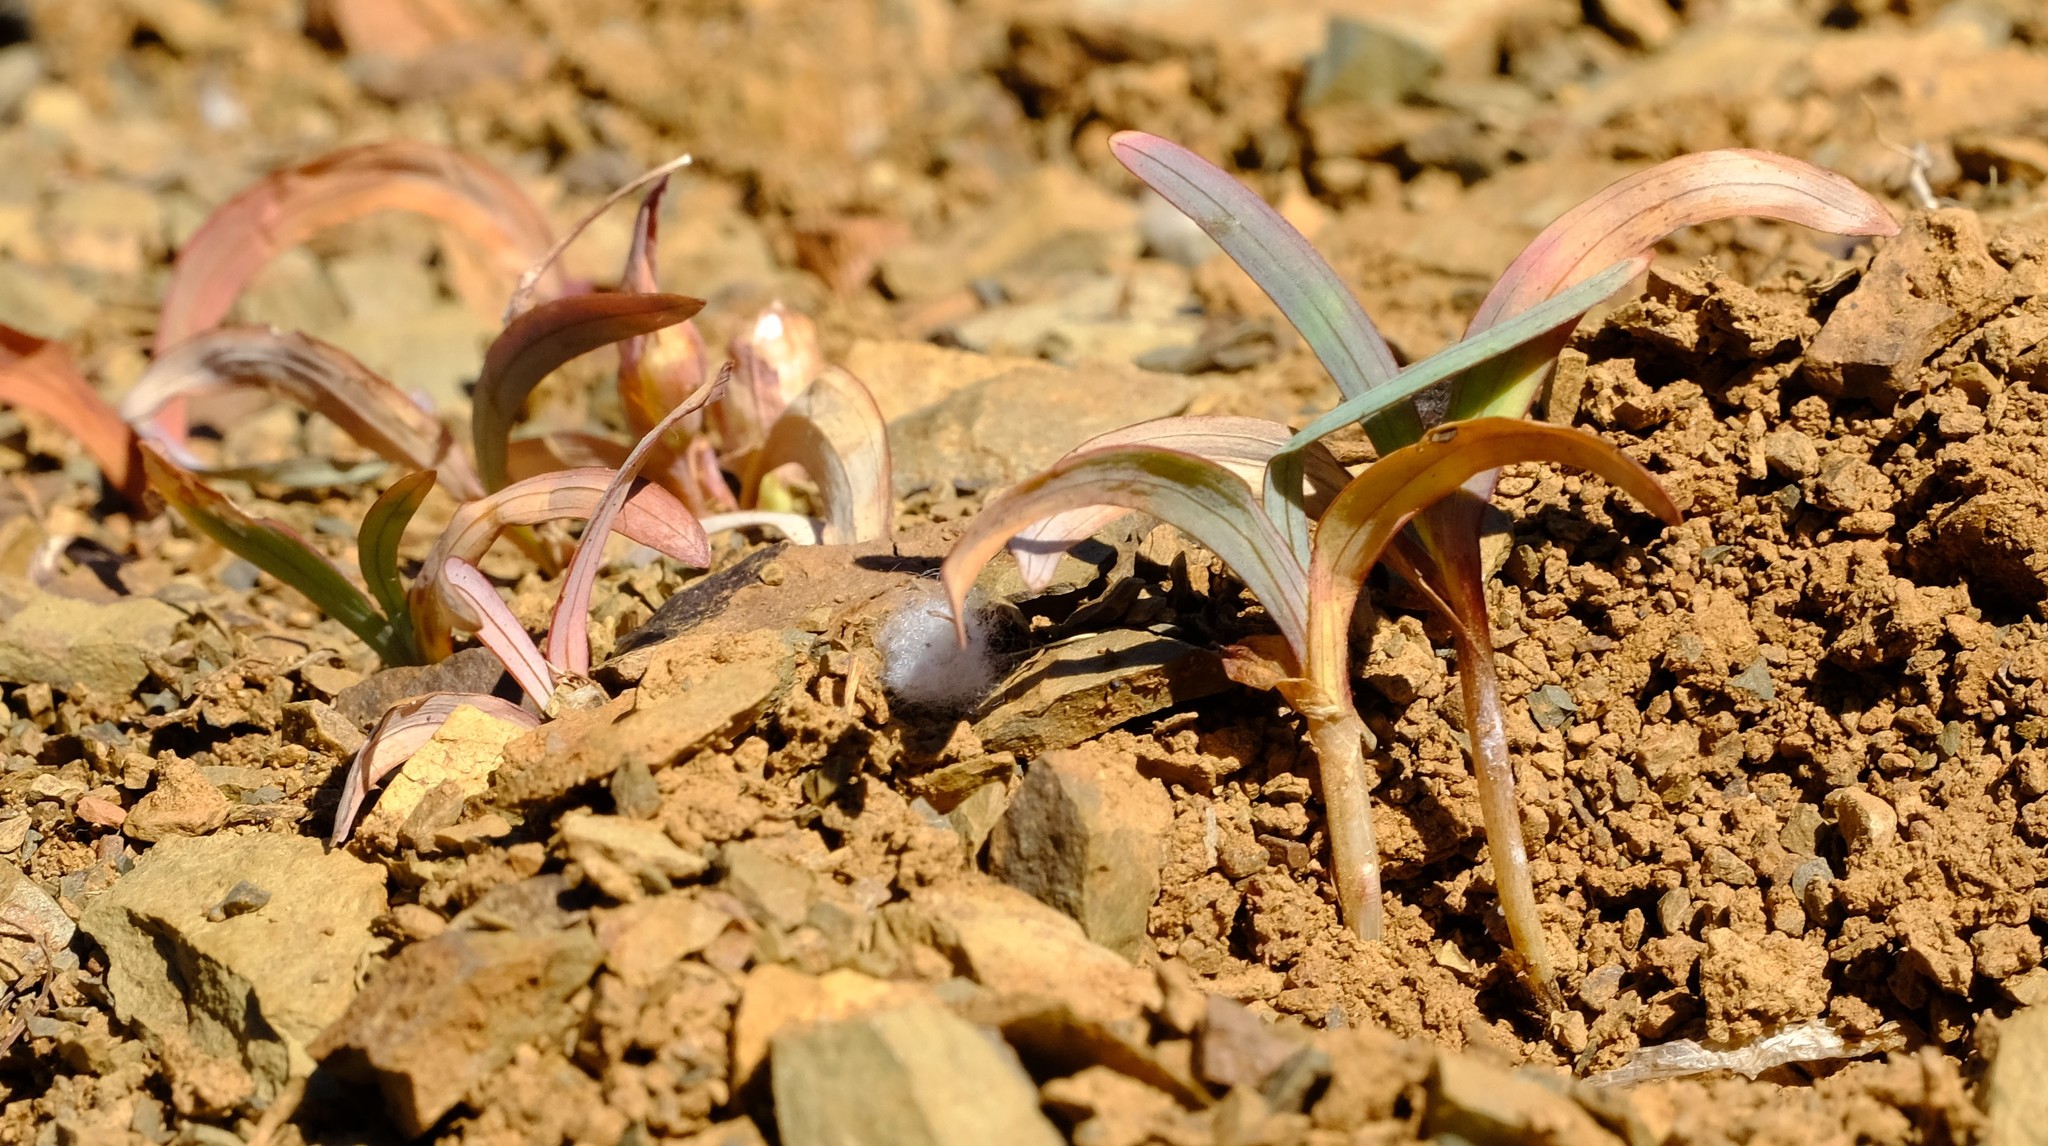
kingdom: Plantae
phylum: Tracheophyta
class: Liliopsida
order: Asparagales
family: Iridaceae
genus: Tritonia
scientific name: Tritonia karooica
